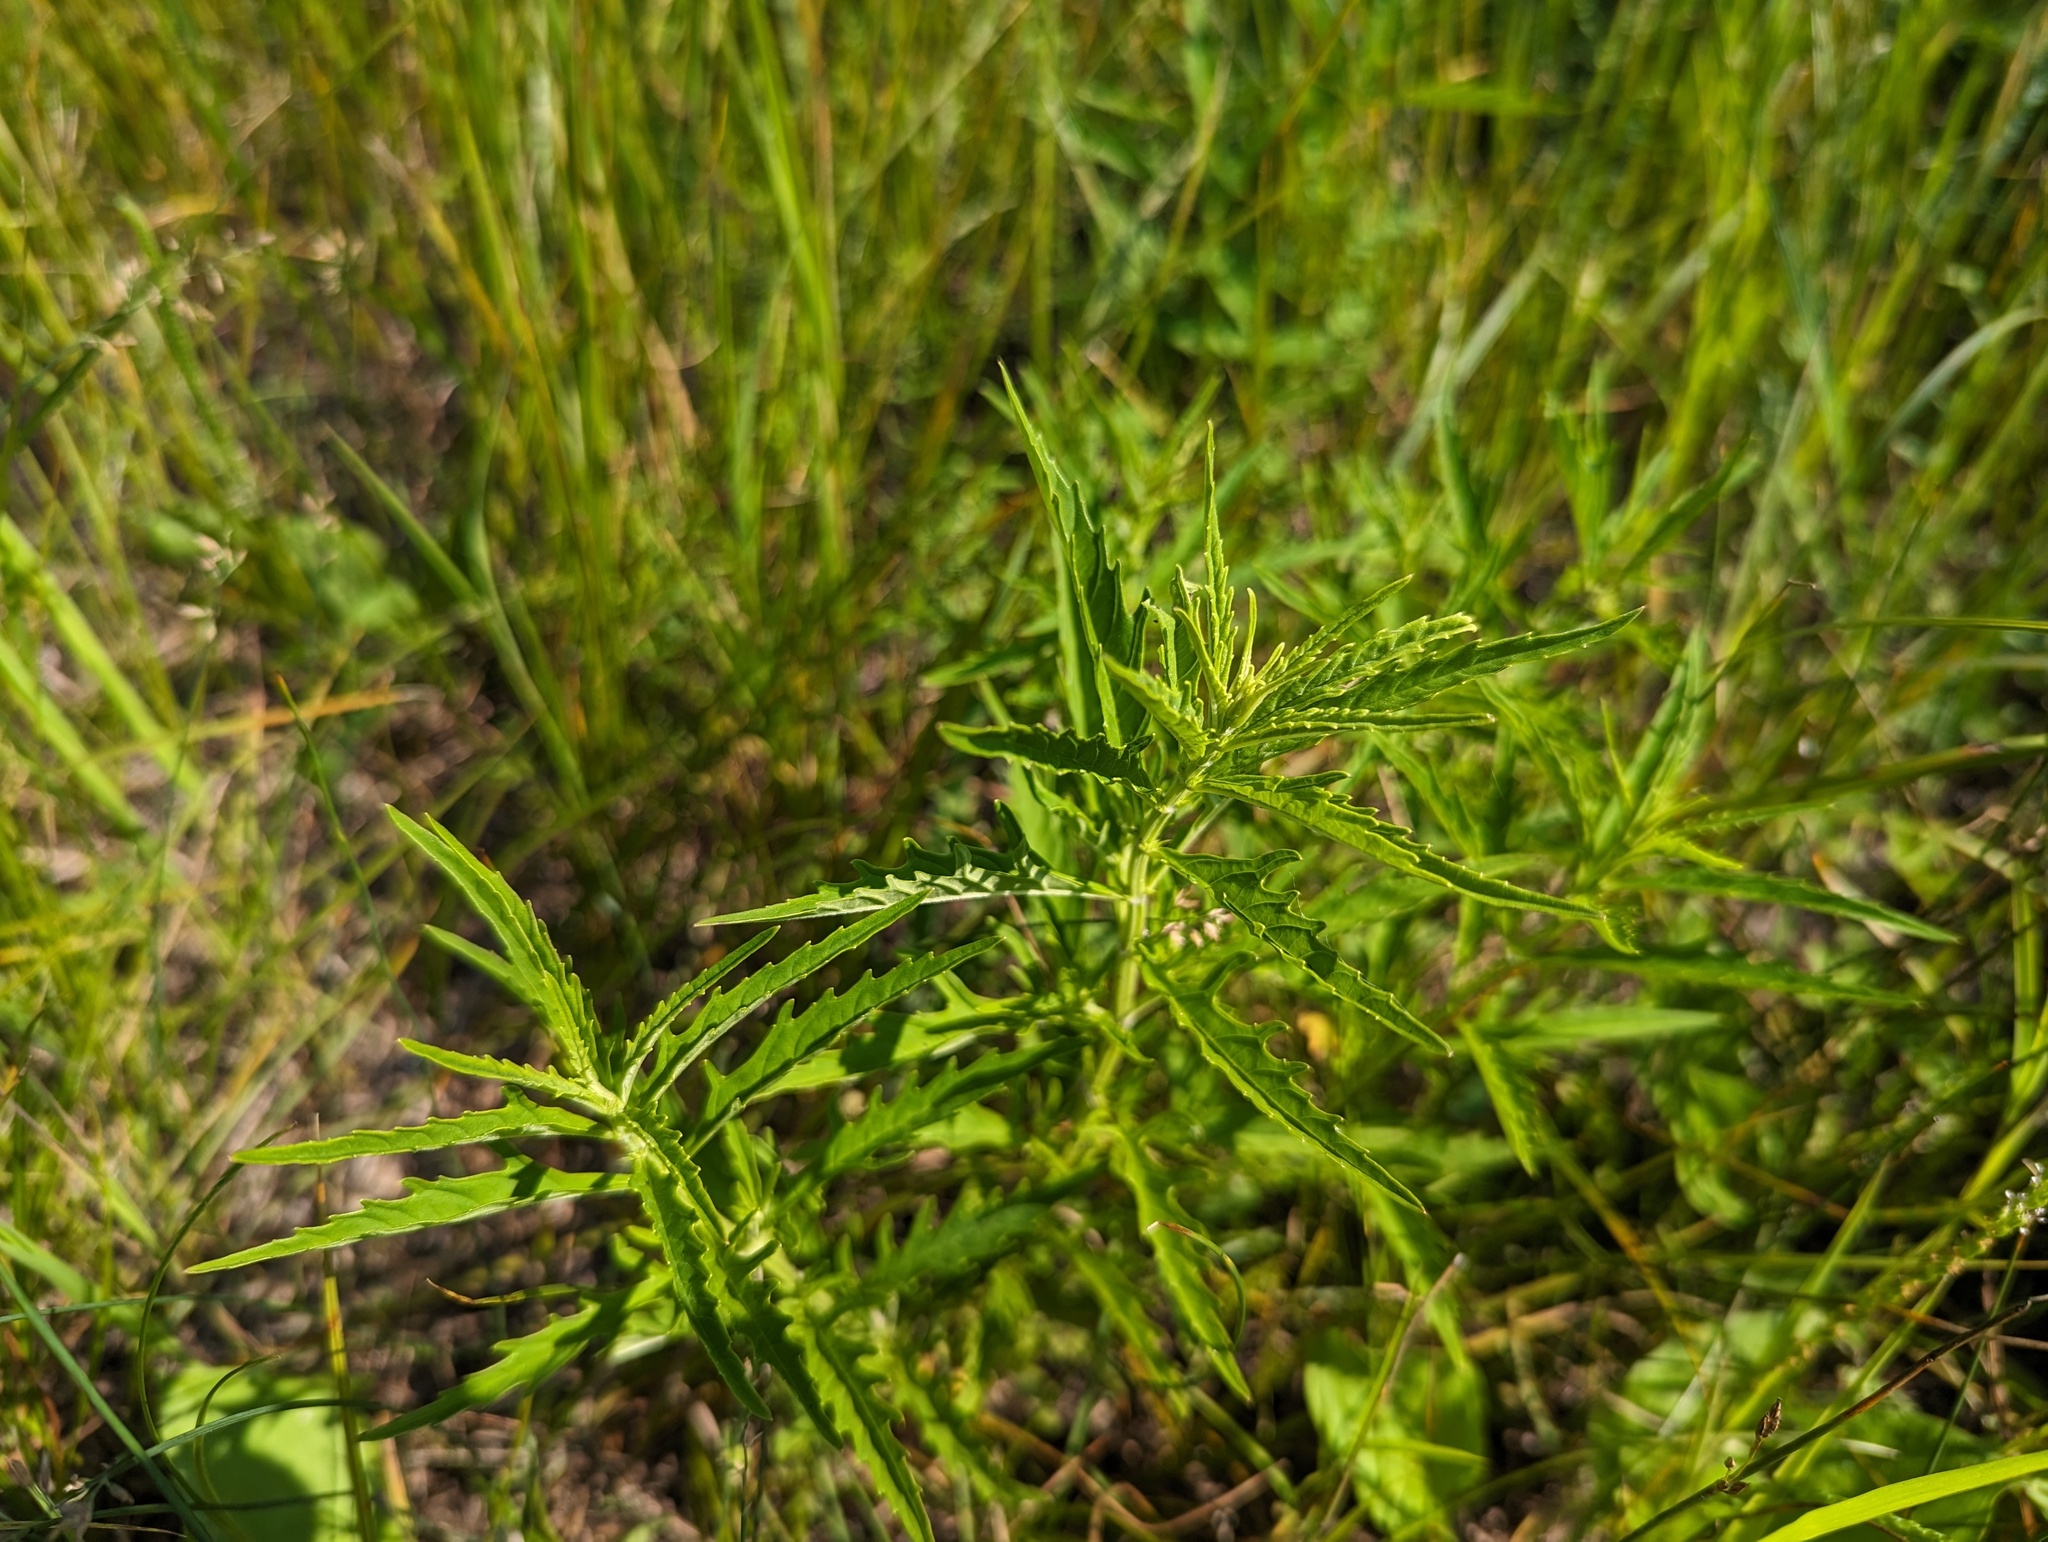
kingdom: Plantae
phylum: Tracheophyta
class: Magnoliopsida
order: Lamiales
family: Lamiaceae
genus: Lycopus
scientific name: Lycopus americanus
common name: American bugleweed
